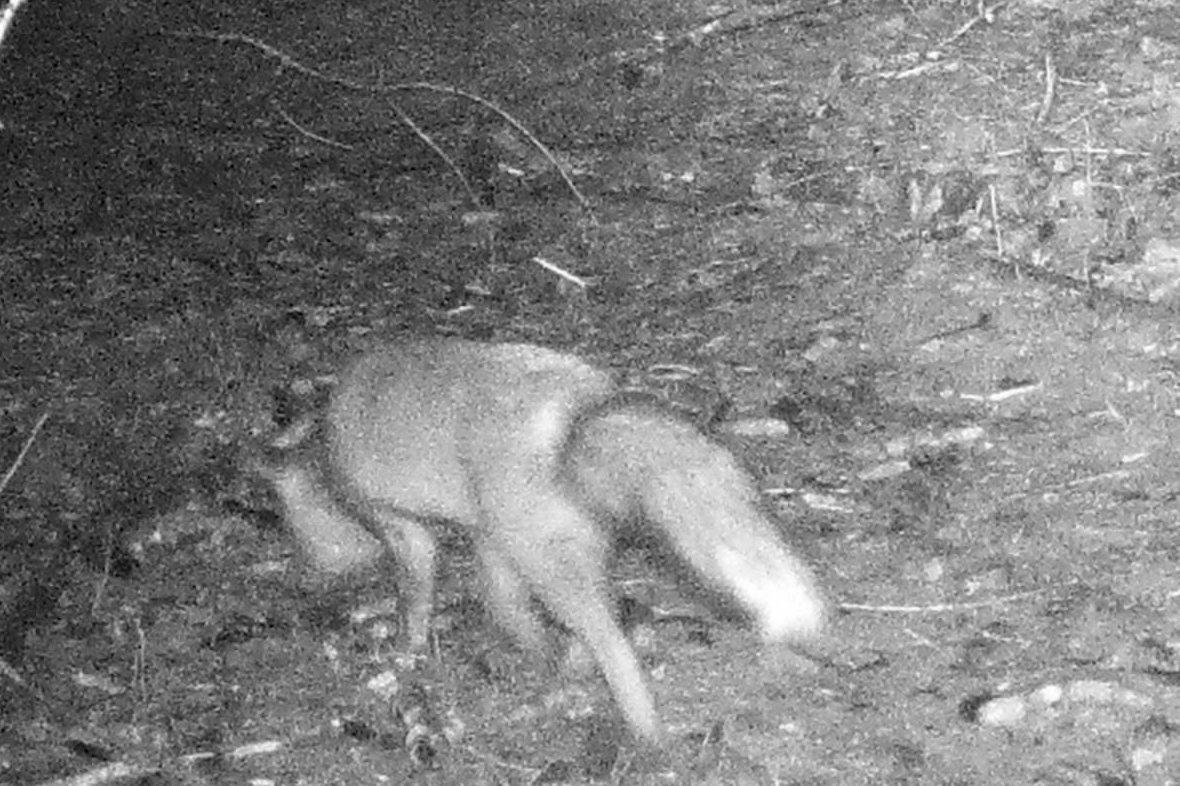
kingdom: Animalia
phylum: Chordata
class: Mammalia
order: Carnivora
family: Canidae
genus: Vulpes
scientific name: Vulpes vulpes
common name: Red fox
